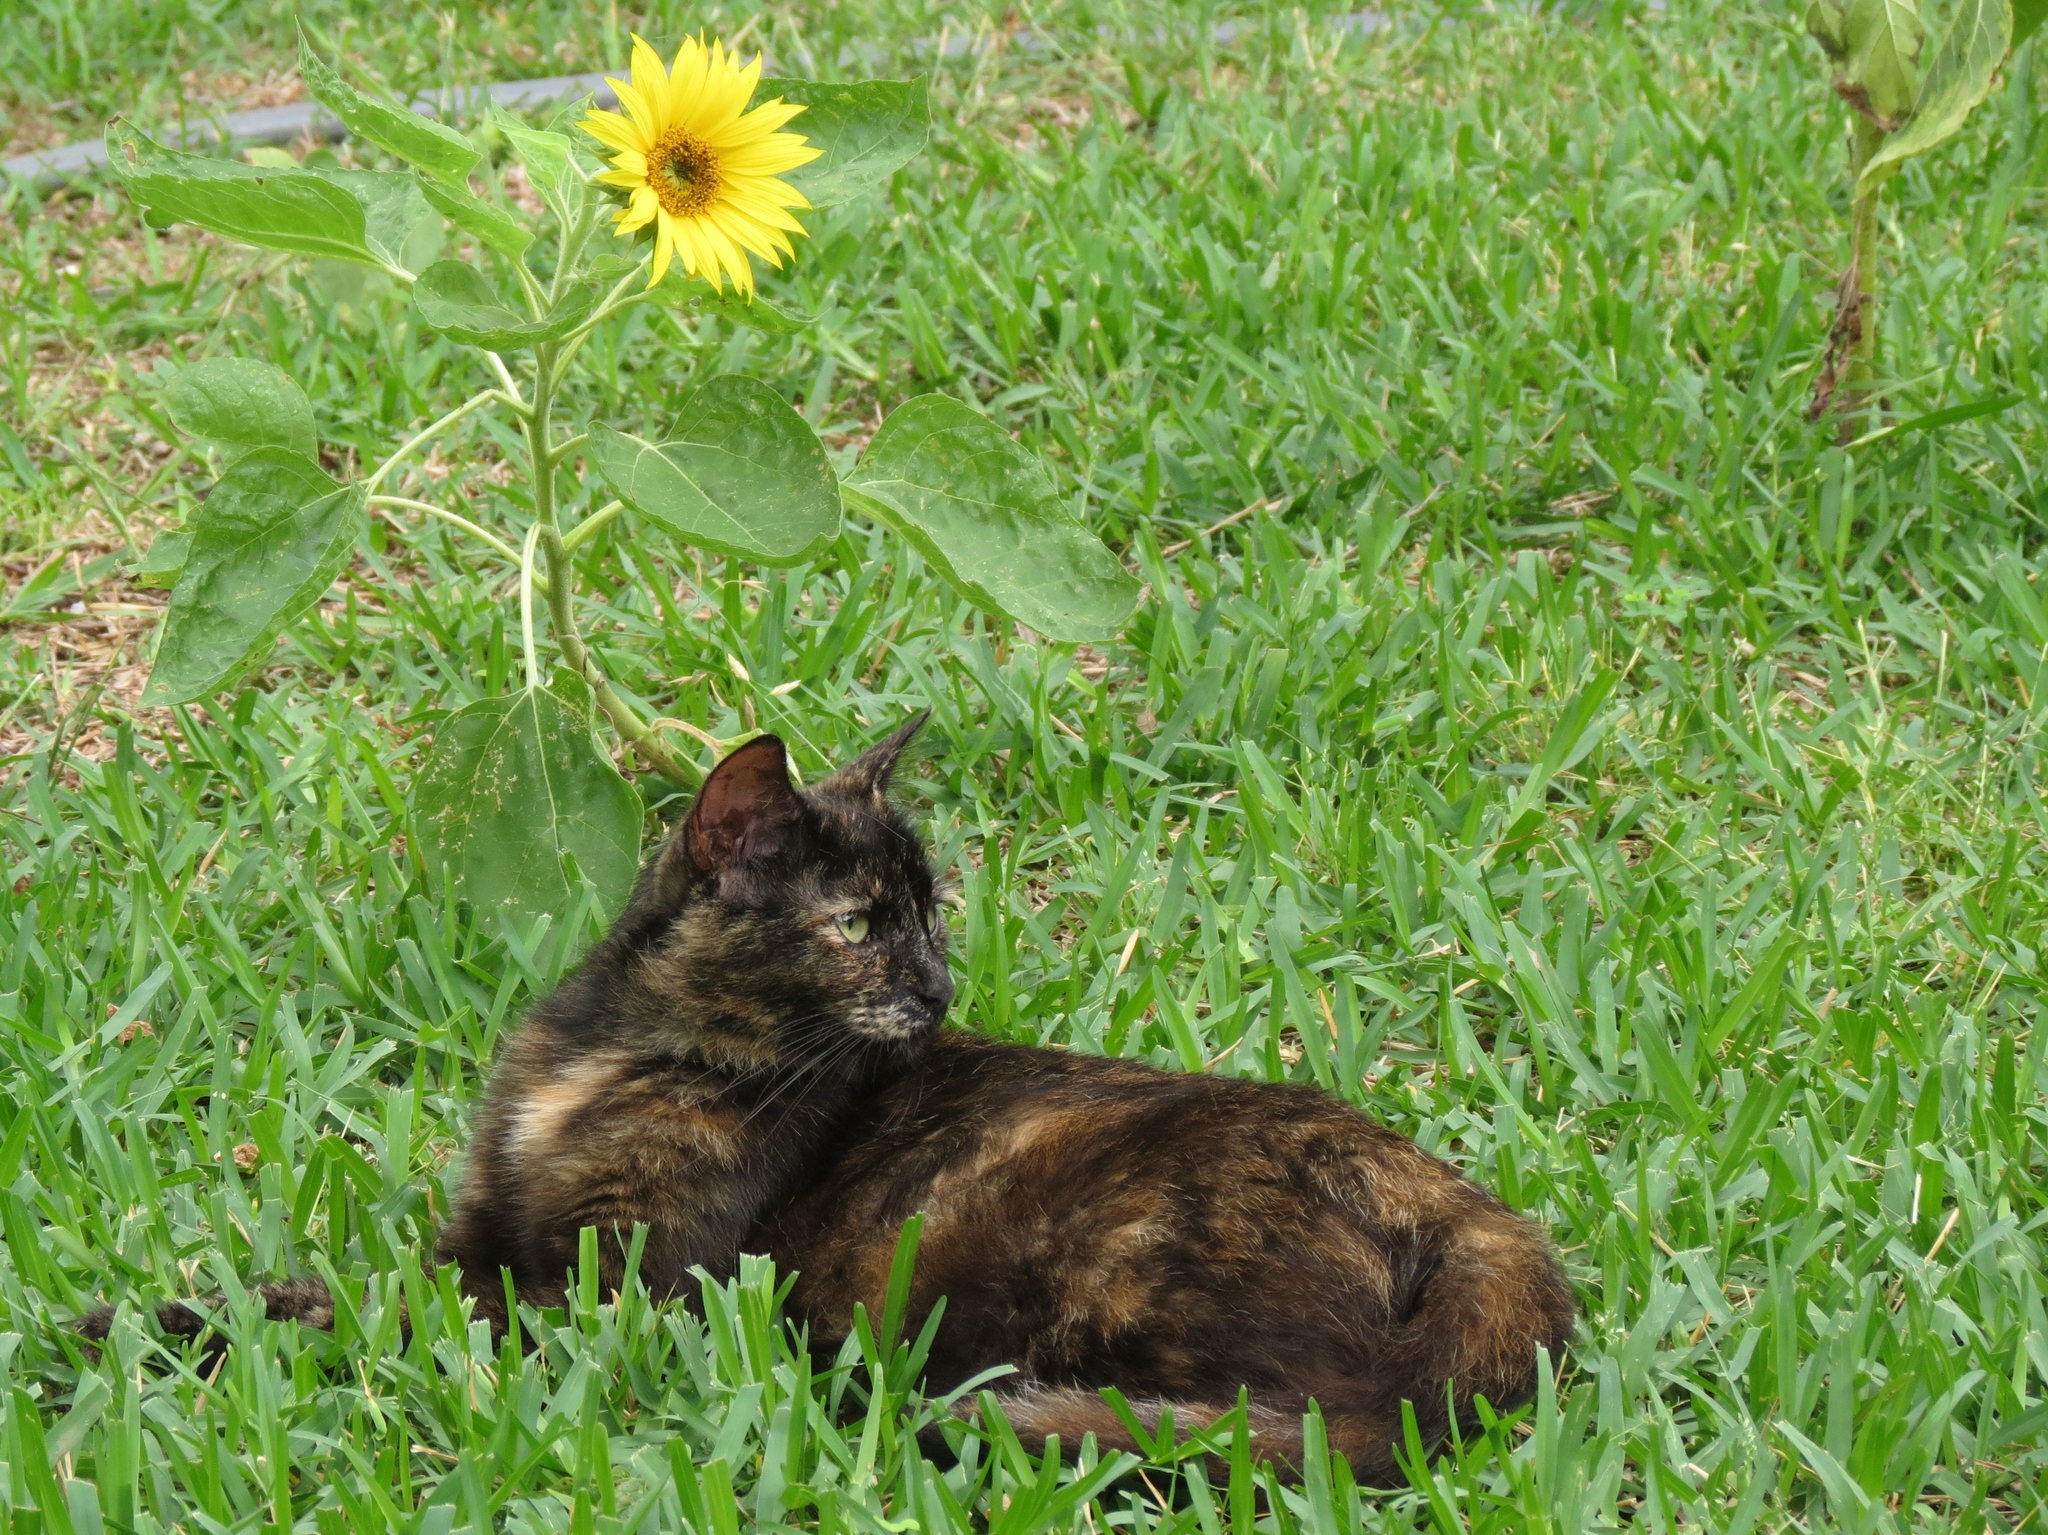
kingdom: Animalia
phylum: Chordata
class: Mammalia
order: Carnivora
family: Felidae
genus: Felis
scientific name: Felis catus
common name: Domestic cat
